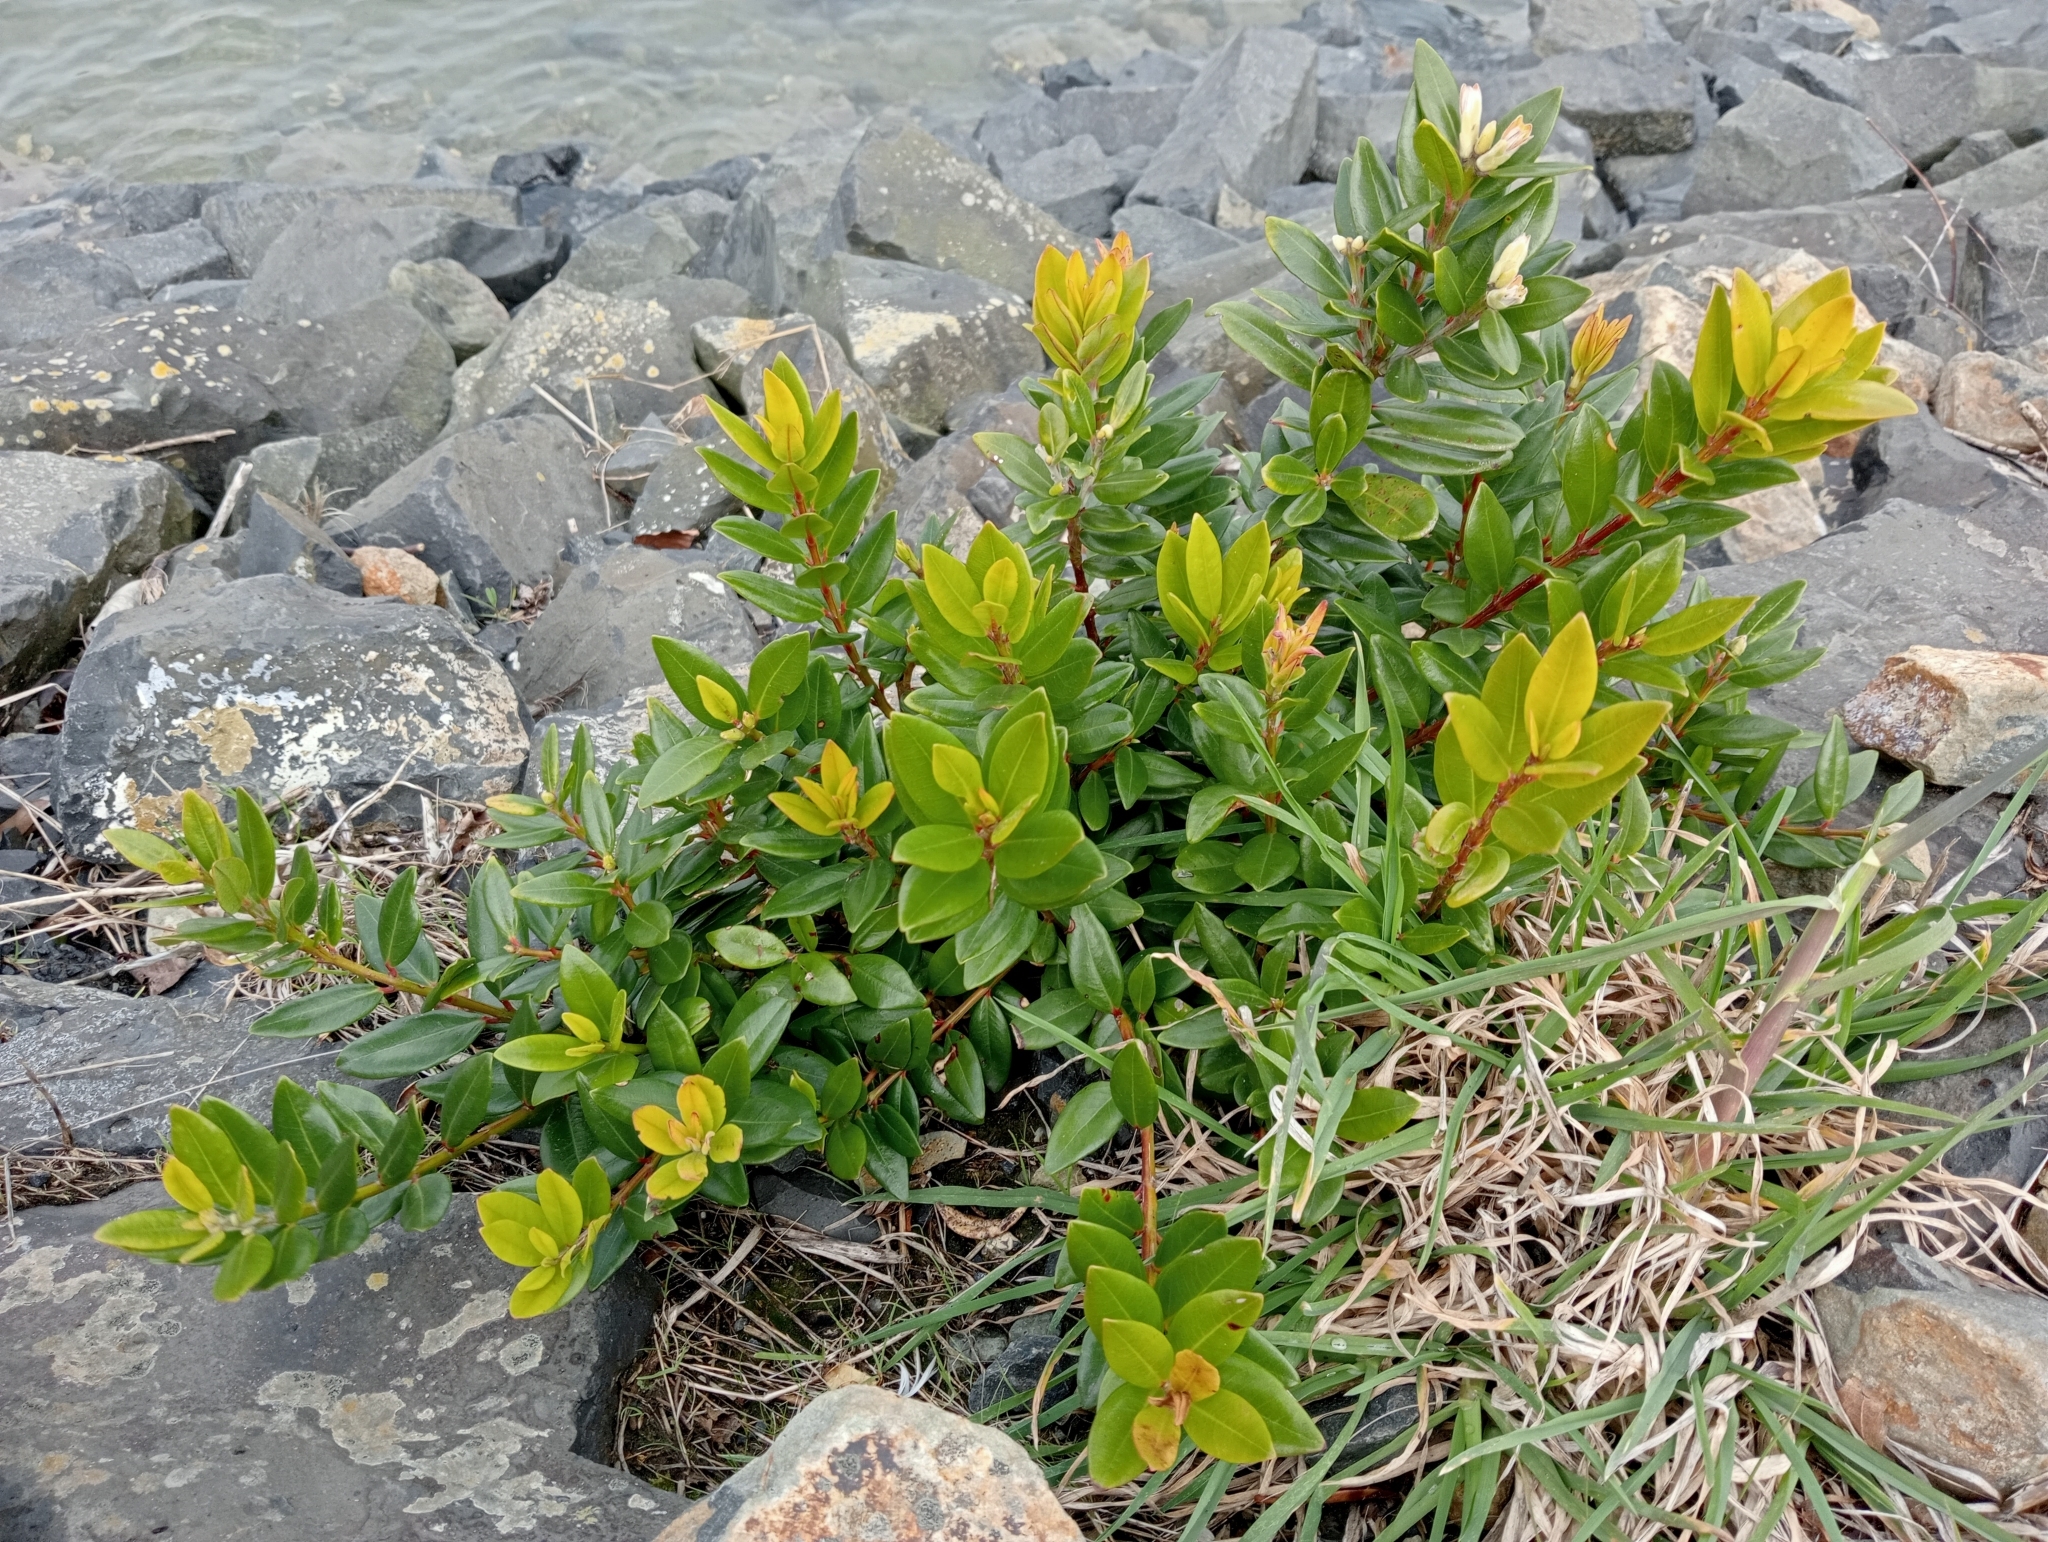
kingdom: Plantae
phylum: Tracheophyta
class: Magnoliopsida
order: Myrtales
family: Myrtaceae
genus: Metrosideros
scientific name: Metrosideros excelsa
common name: New zealand christmastree
